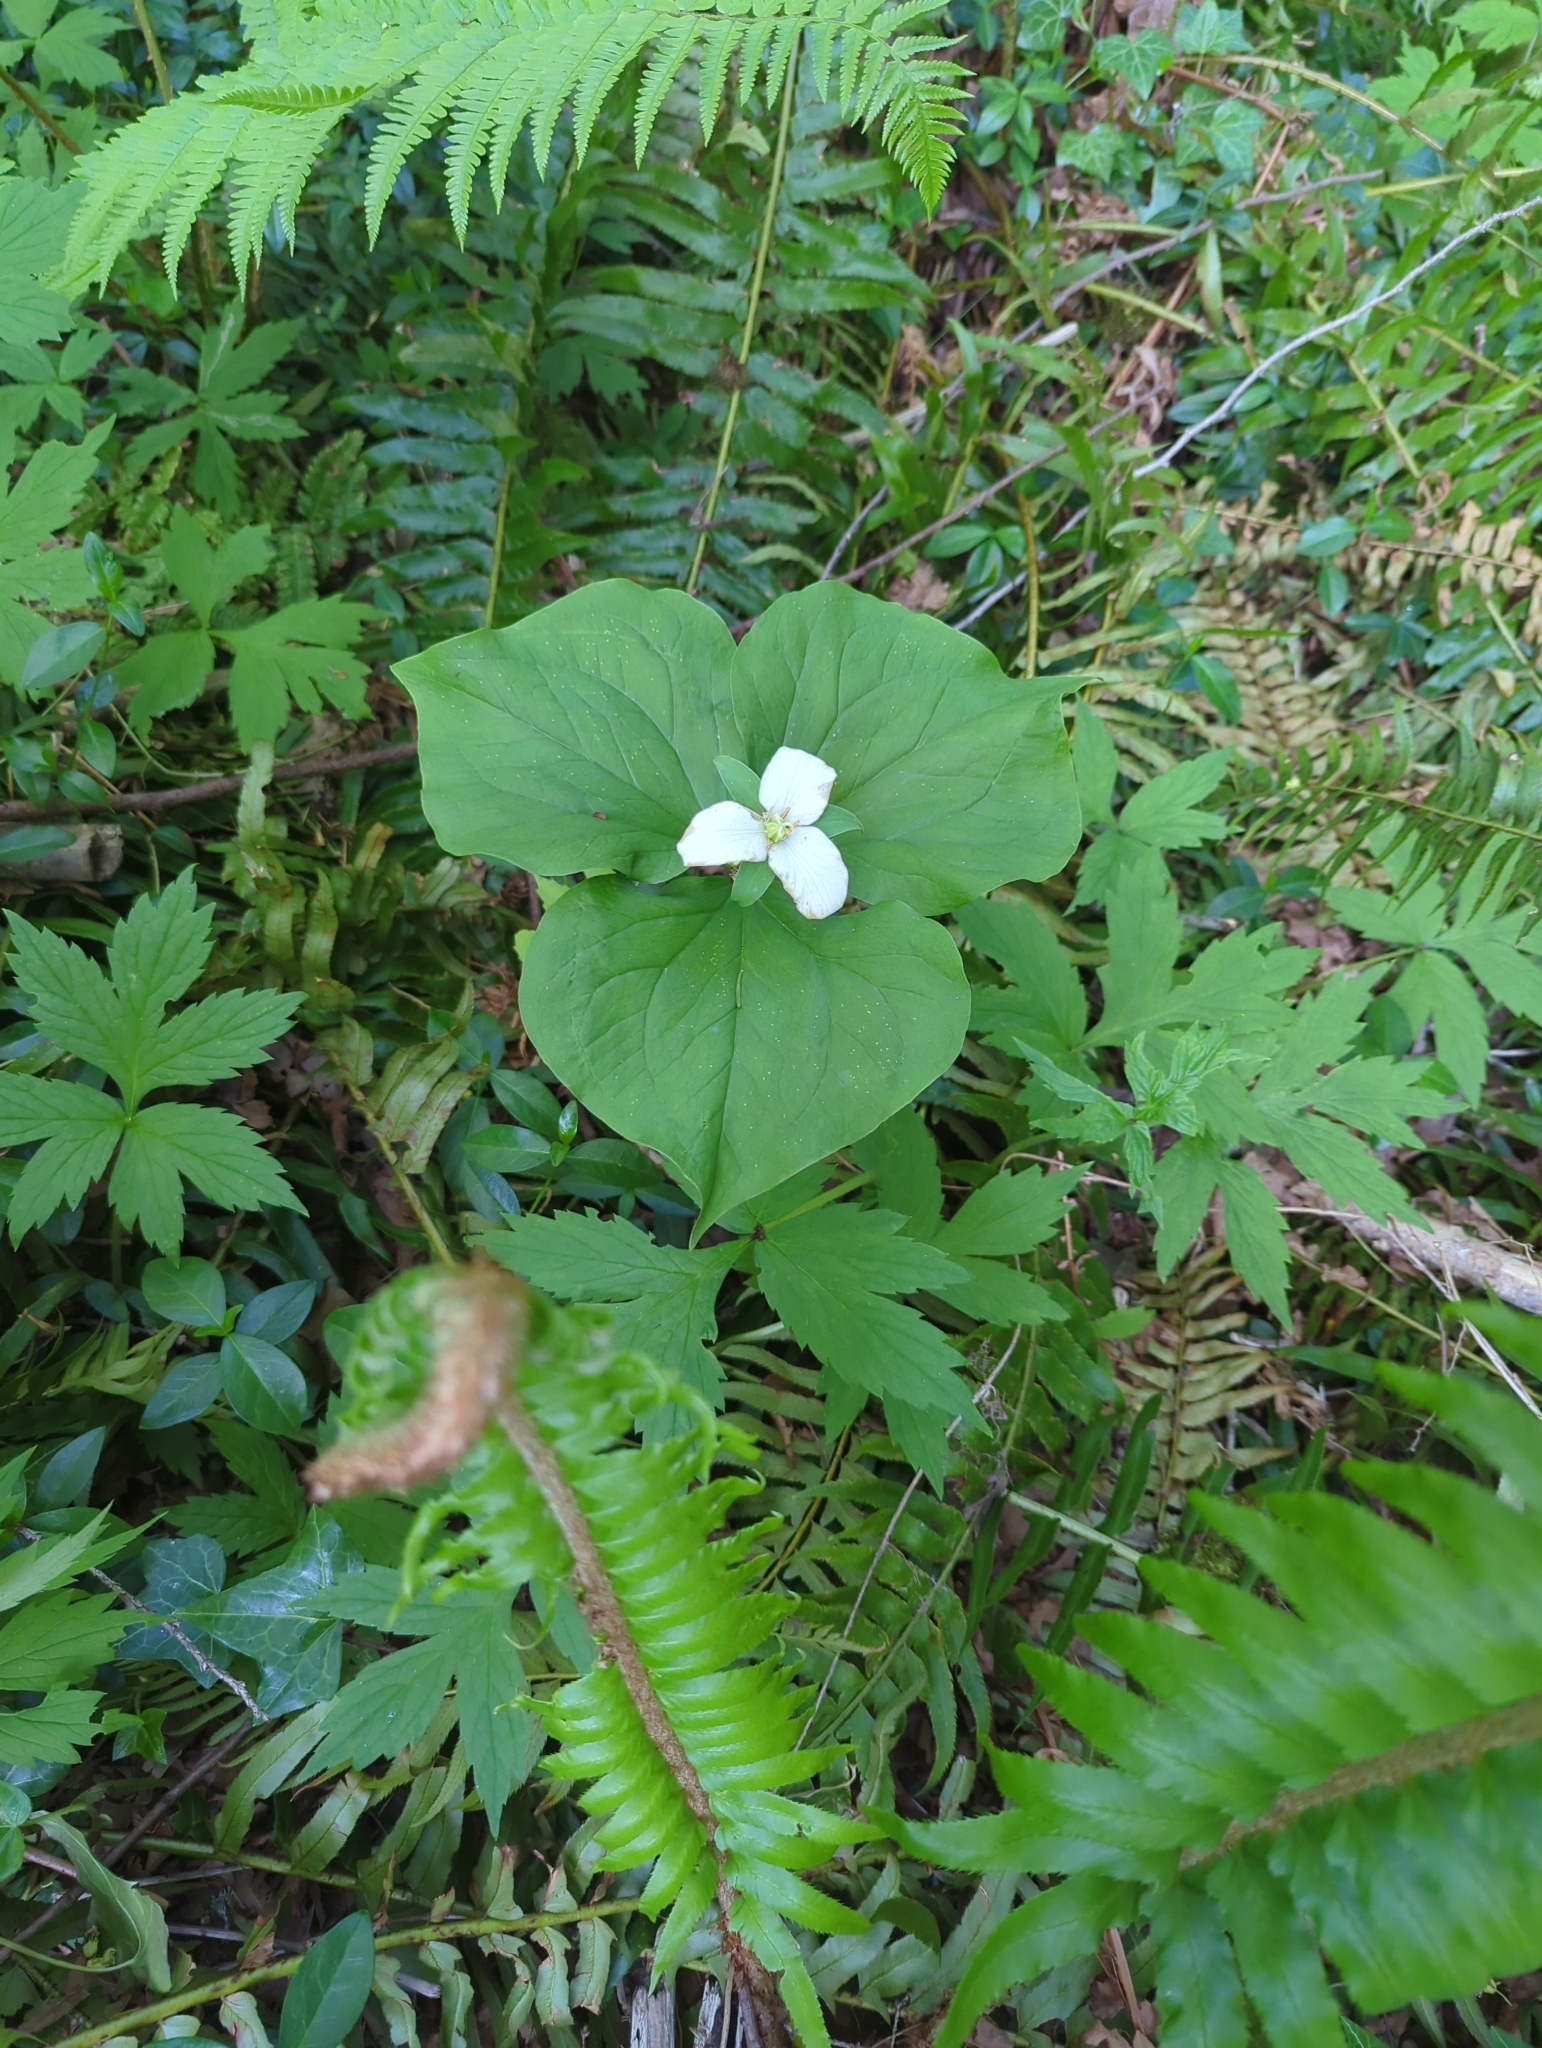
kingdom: Plantae
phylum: Tracheophyta
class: Liliopsida
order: Liliales
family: Melanthiaceae
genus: Trillium
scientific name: Trillium ovatum
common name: Pacific trillium
